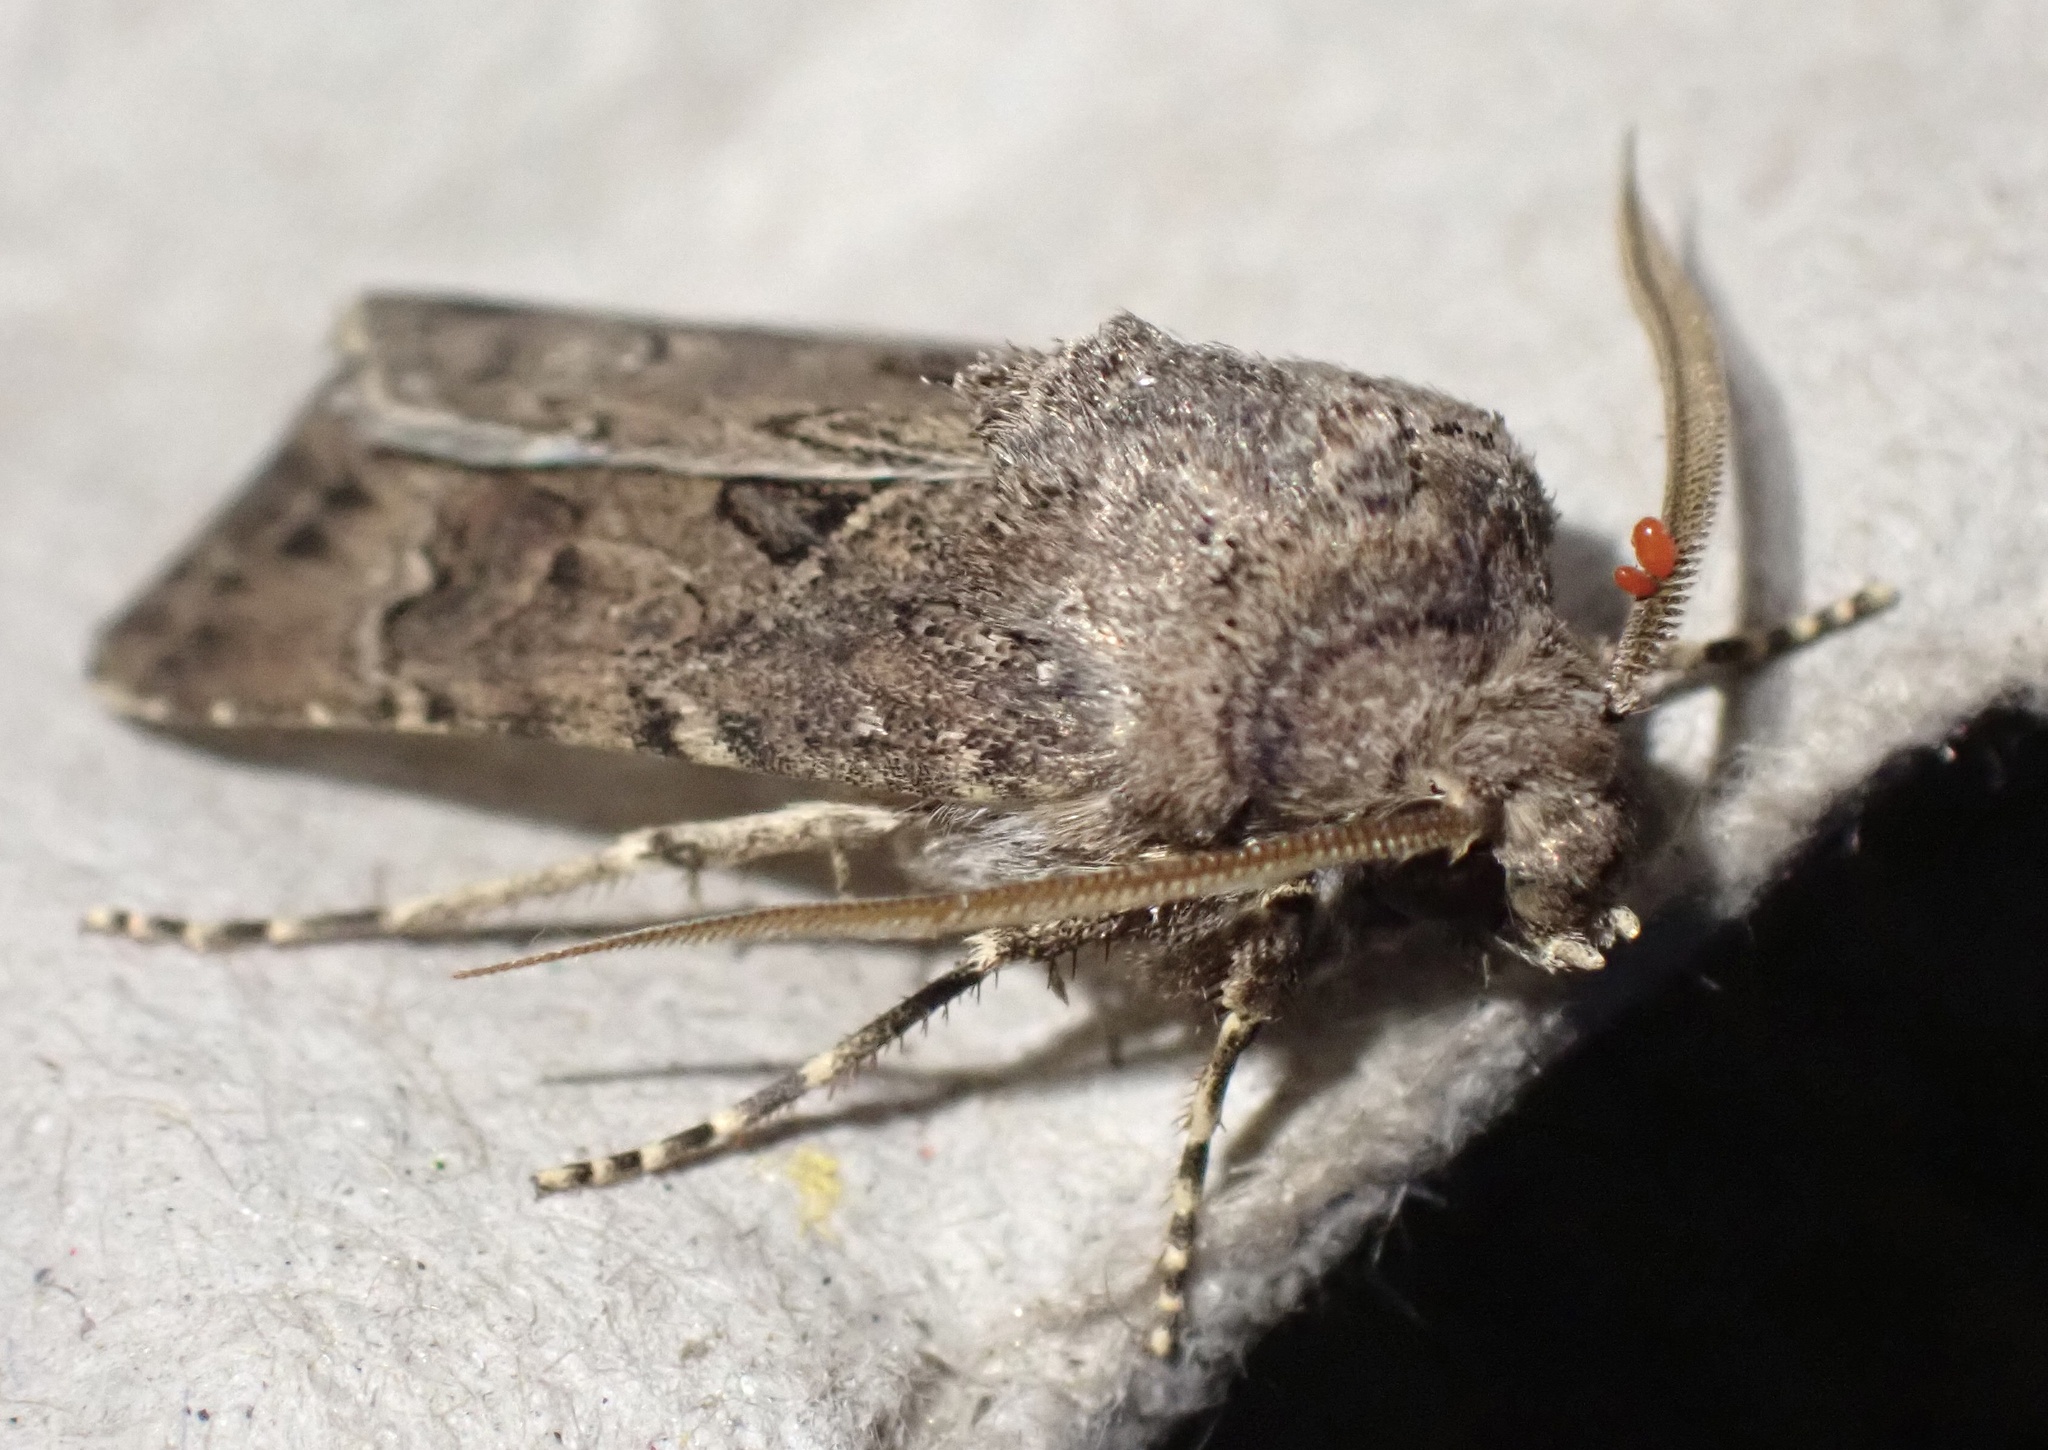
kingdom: Animalia
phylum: Arthropoda
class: Insecta
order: Lepidoptera
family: Noctuidae
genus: Agrotis
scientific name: Agrotis bigramma
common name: Great dart
